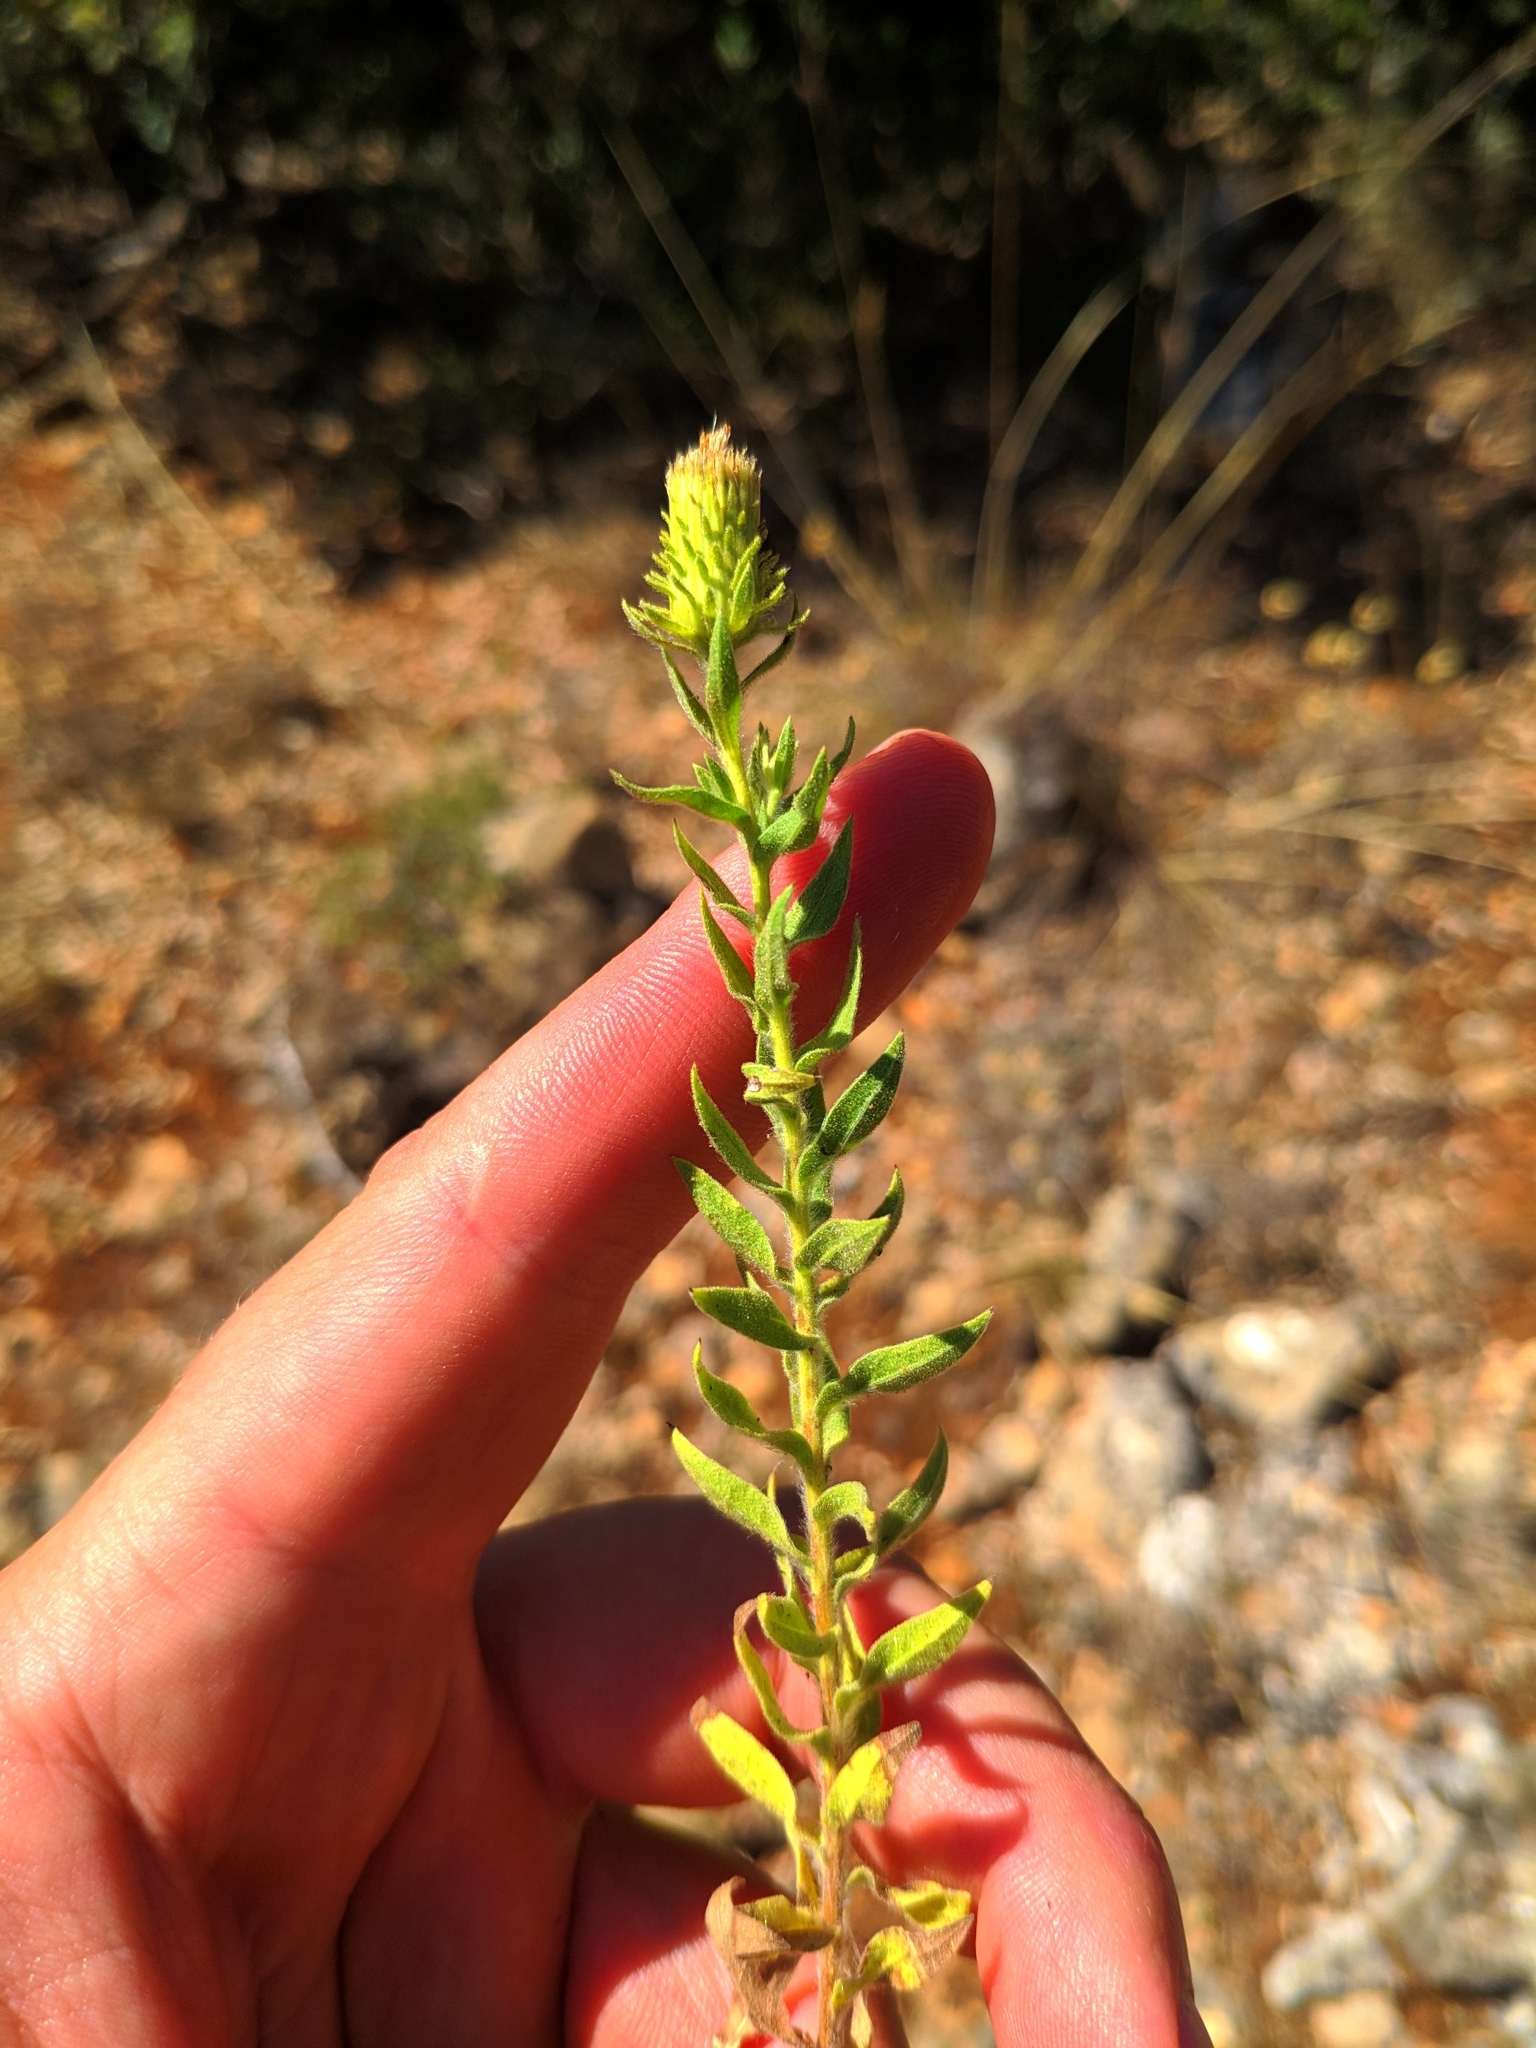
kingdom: Plantae
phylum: Tracheophyta
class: Magnoliopsida
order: Asterales
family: Asteraceae
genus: Chiliadenus
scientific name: Chiliadenus glutinosus
